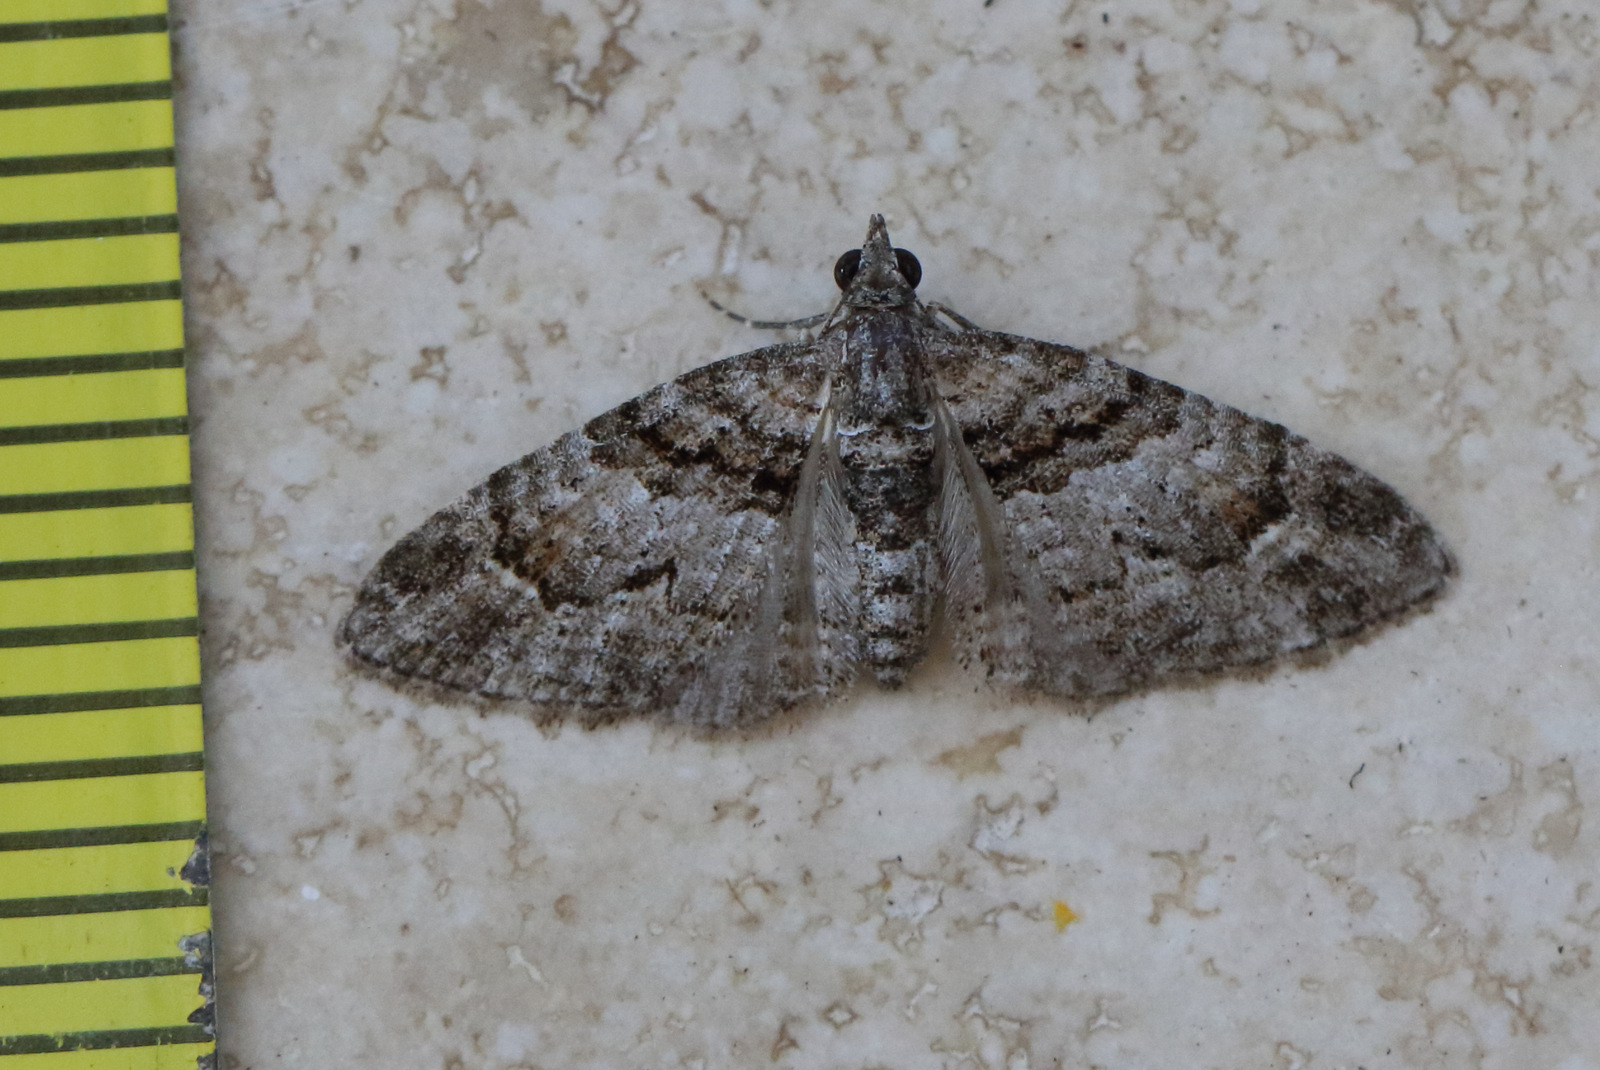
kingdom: Animalia
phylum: Arthropoda
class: Insecta
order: Lepidoptera
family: Geometridae
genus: Phrissogonus
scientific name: Phrissogonus laticostata
